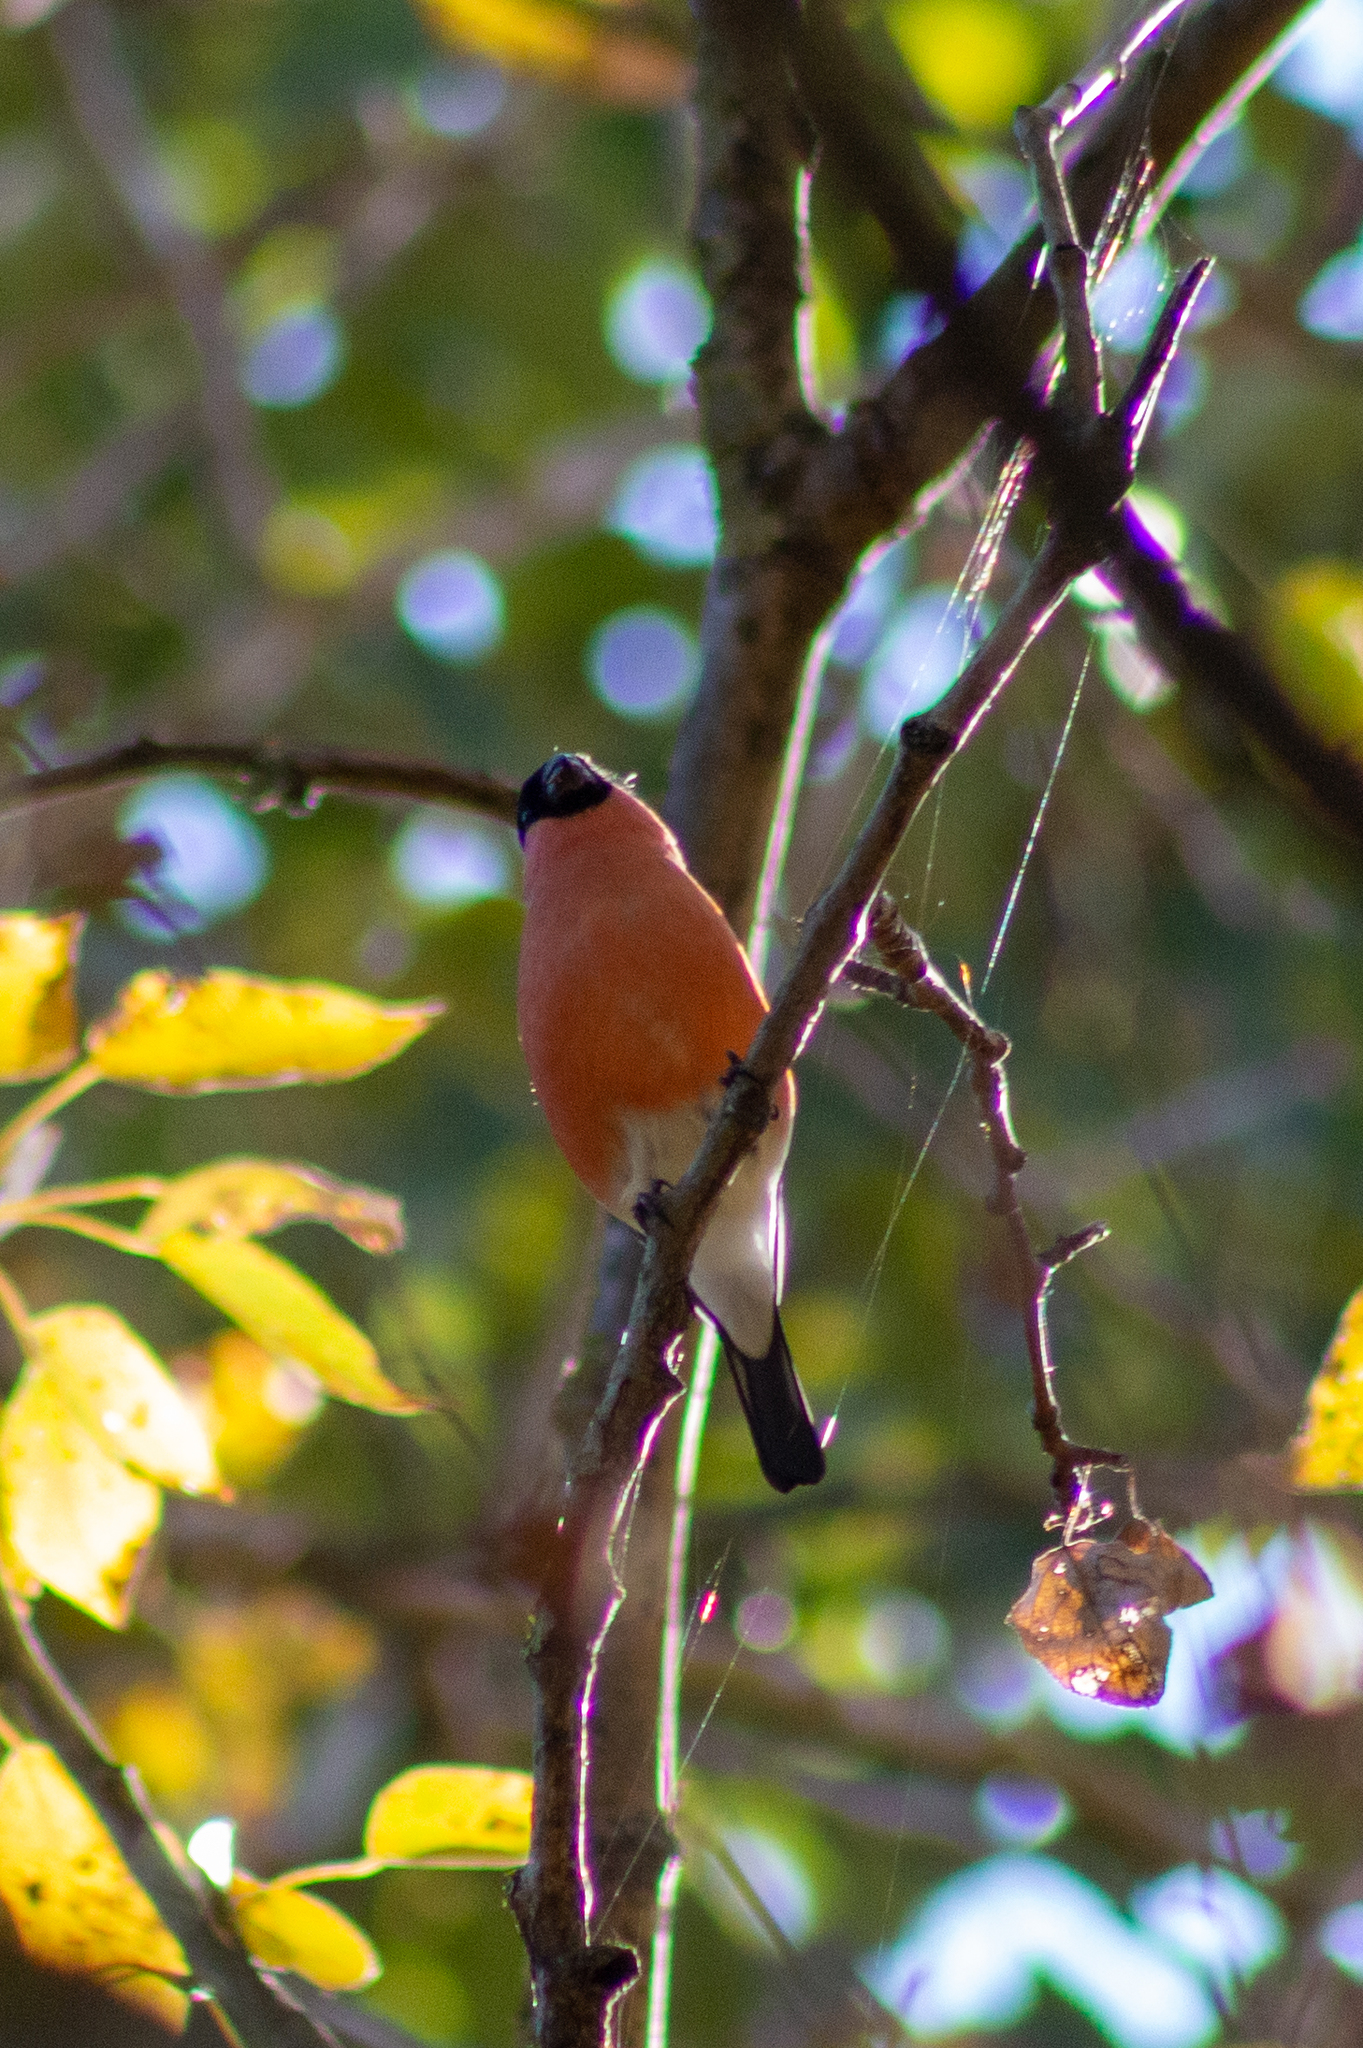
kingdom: Animalia
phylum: Chordata
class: Aves
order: Passeriformes
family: Fringillidae
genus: Pyrrhula
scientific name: Pyrrhula pyrrhula
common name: Eurasian bullfinch
